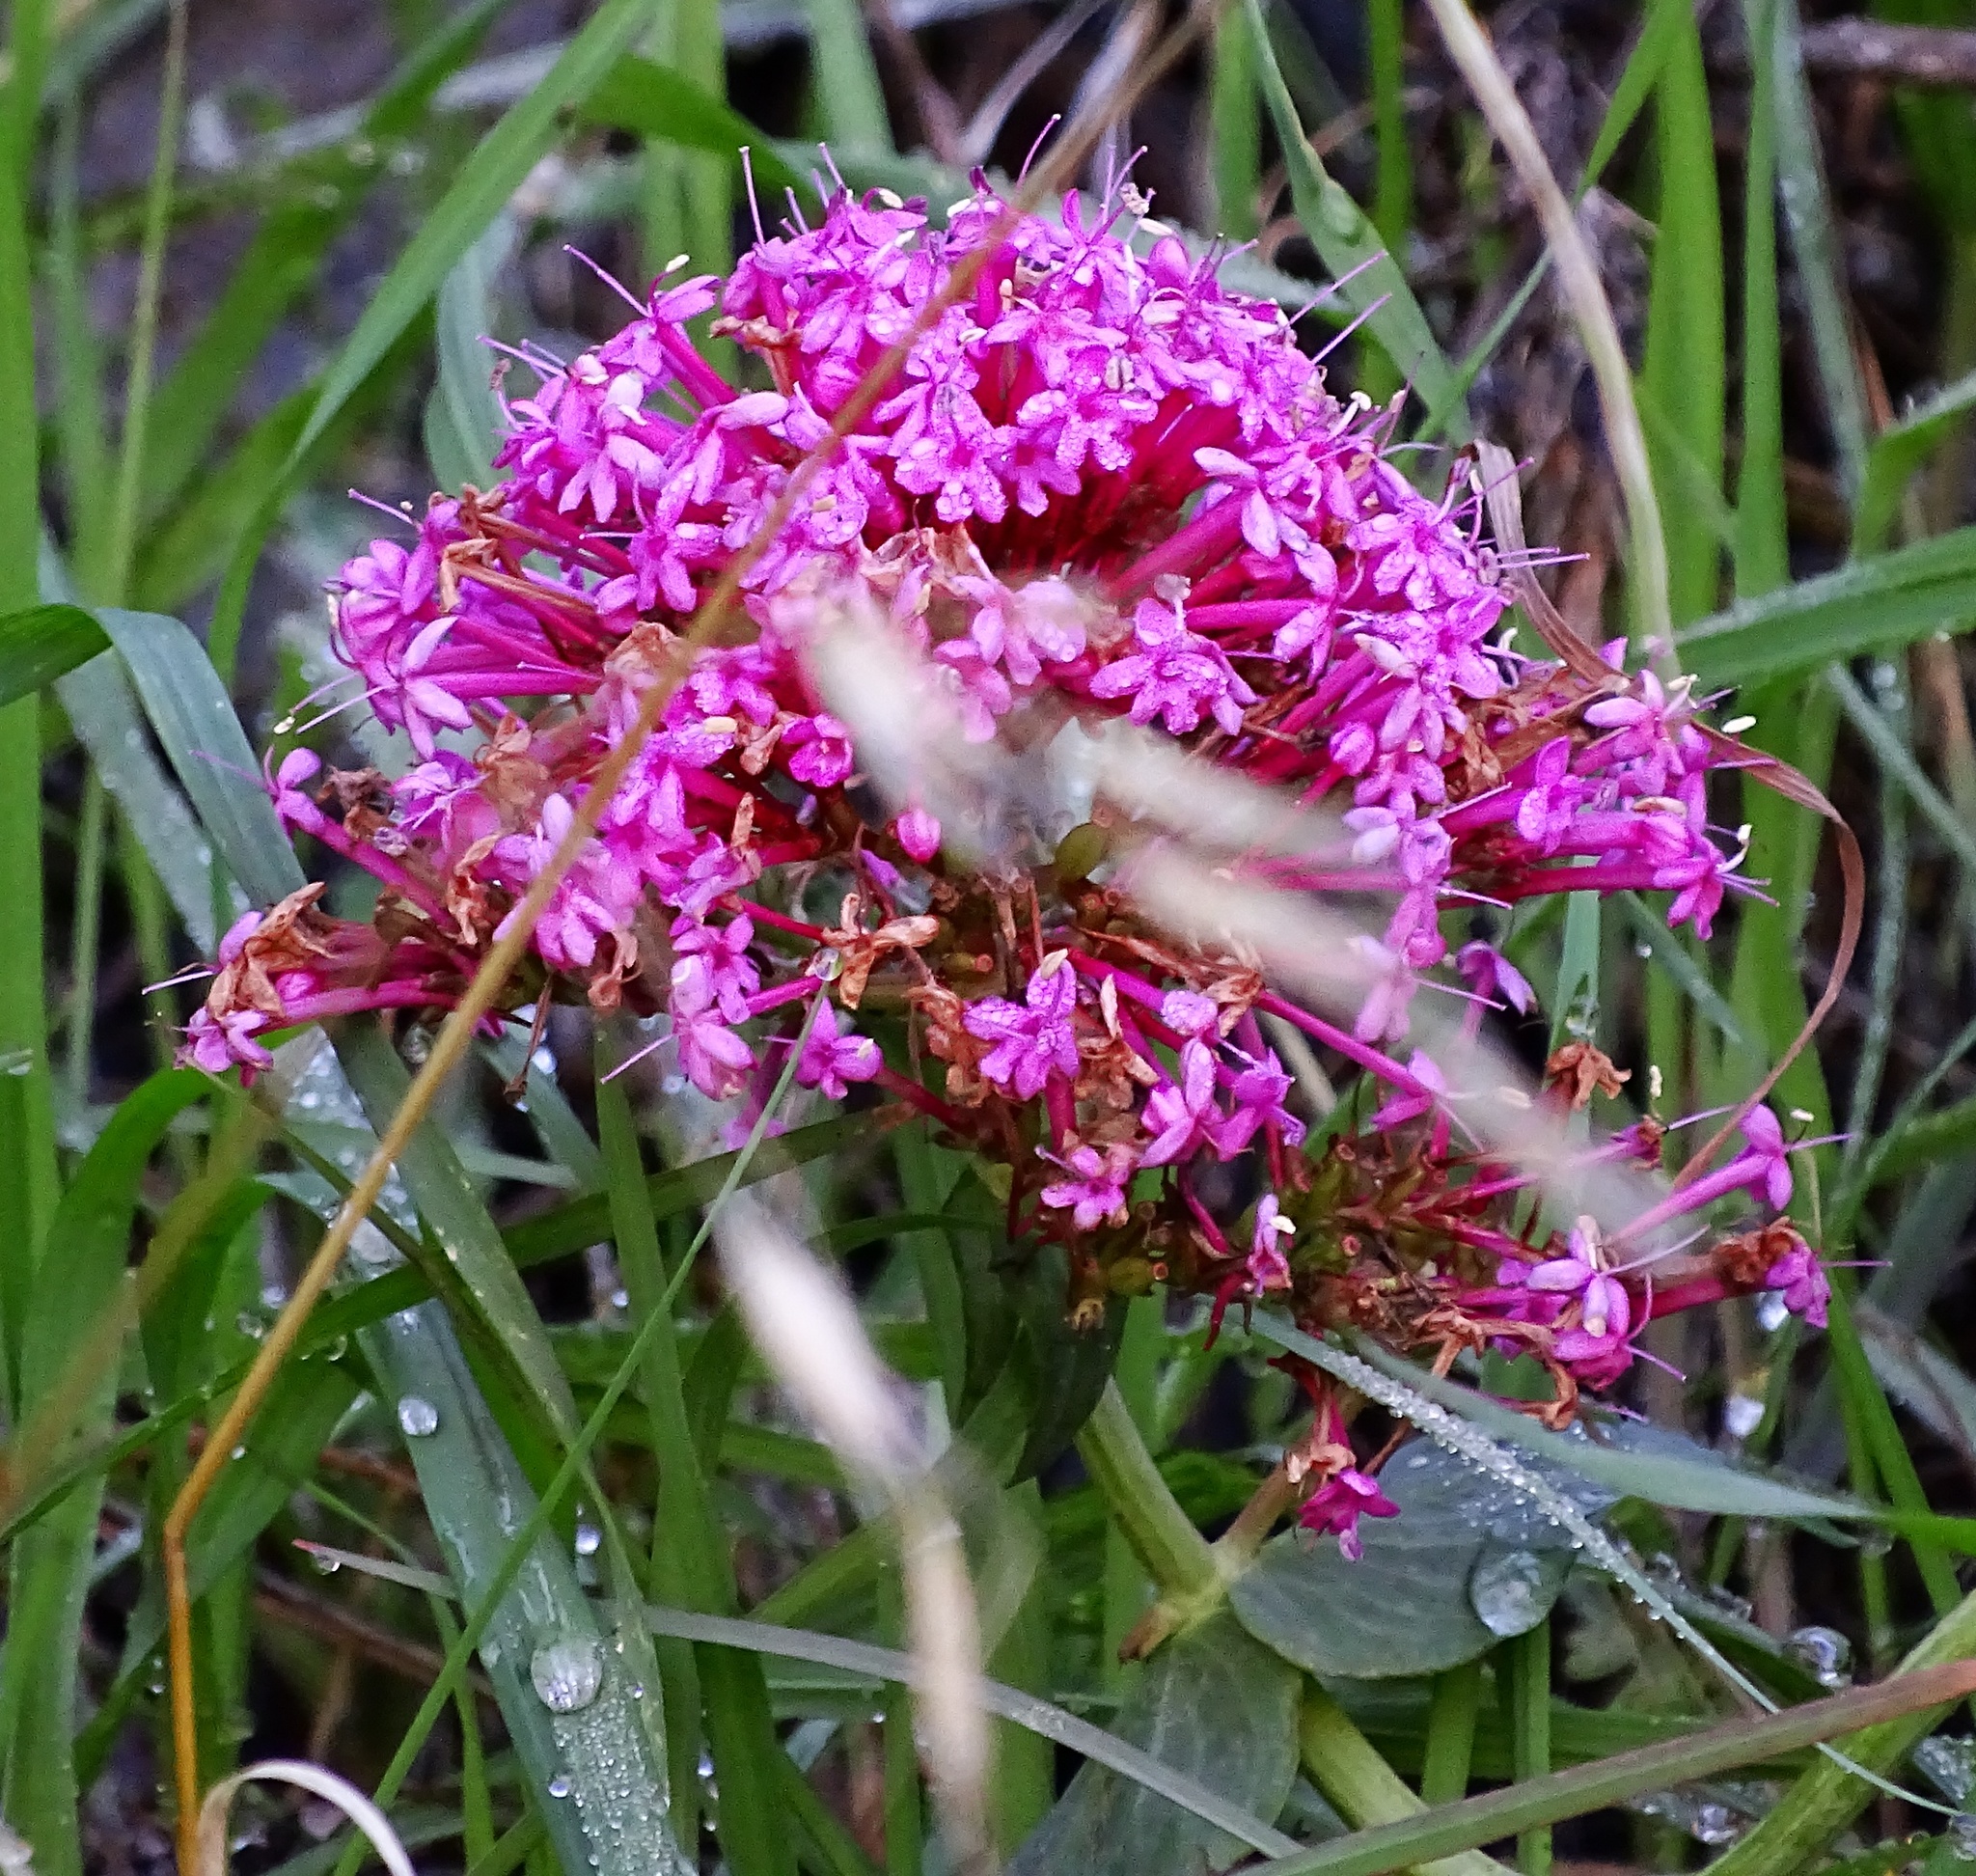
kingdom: Plantae
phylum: Tracheophyta
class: Magnoliopsida
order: Dipsacales
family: Caprifoliaceae
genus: Centranthus
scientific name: Centranthus ruber
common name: Red valerian
